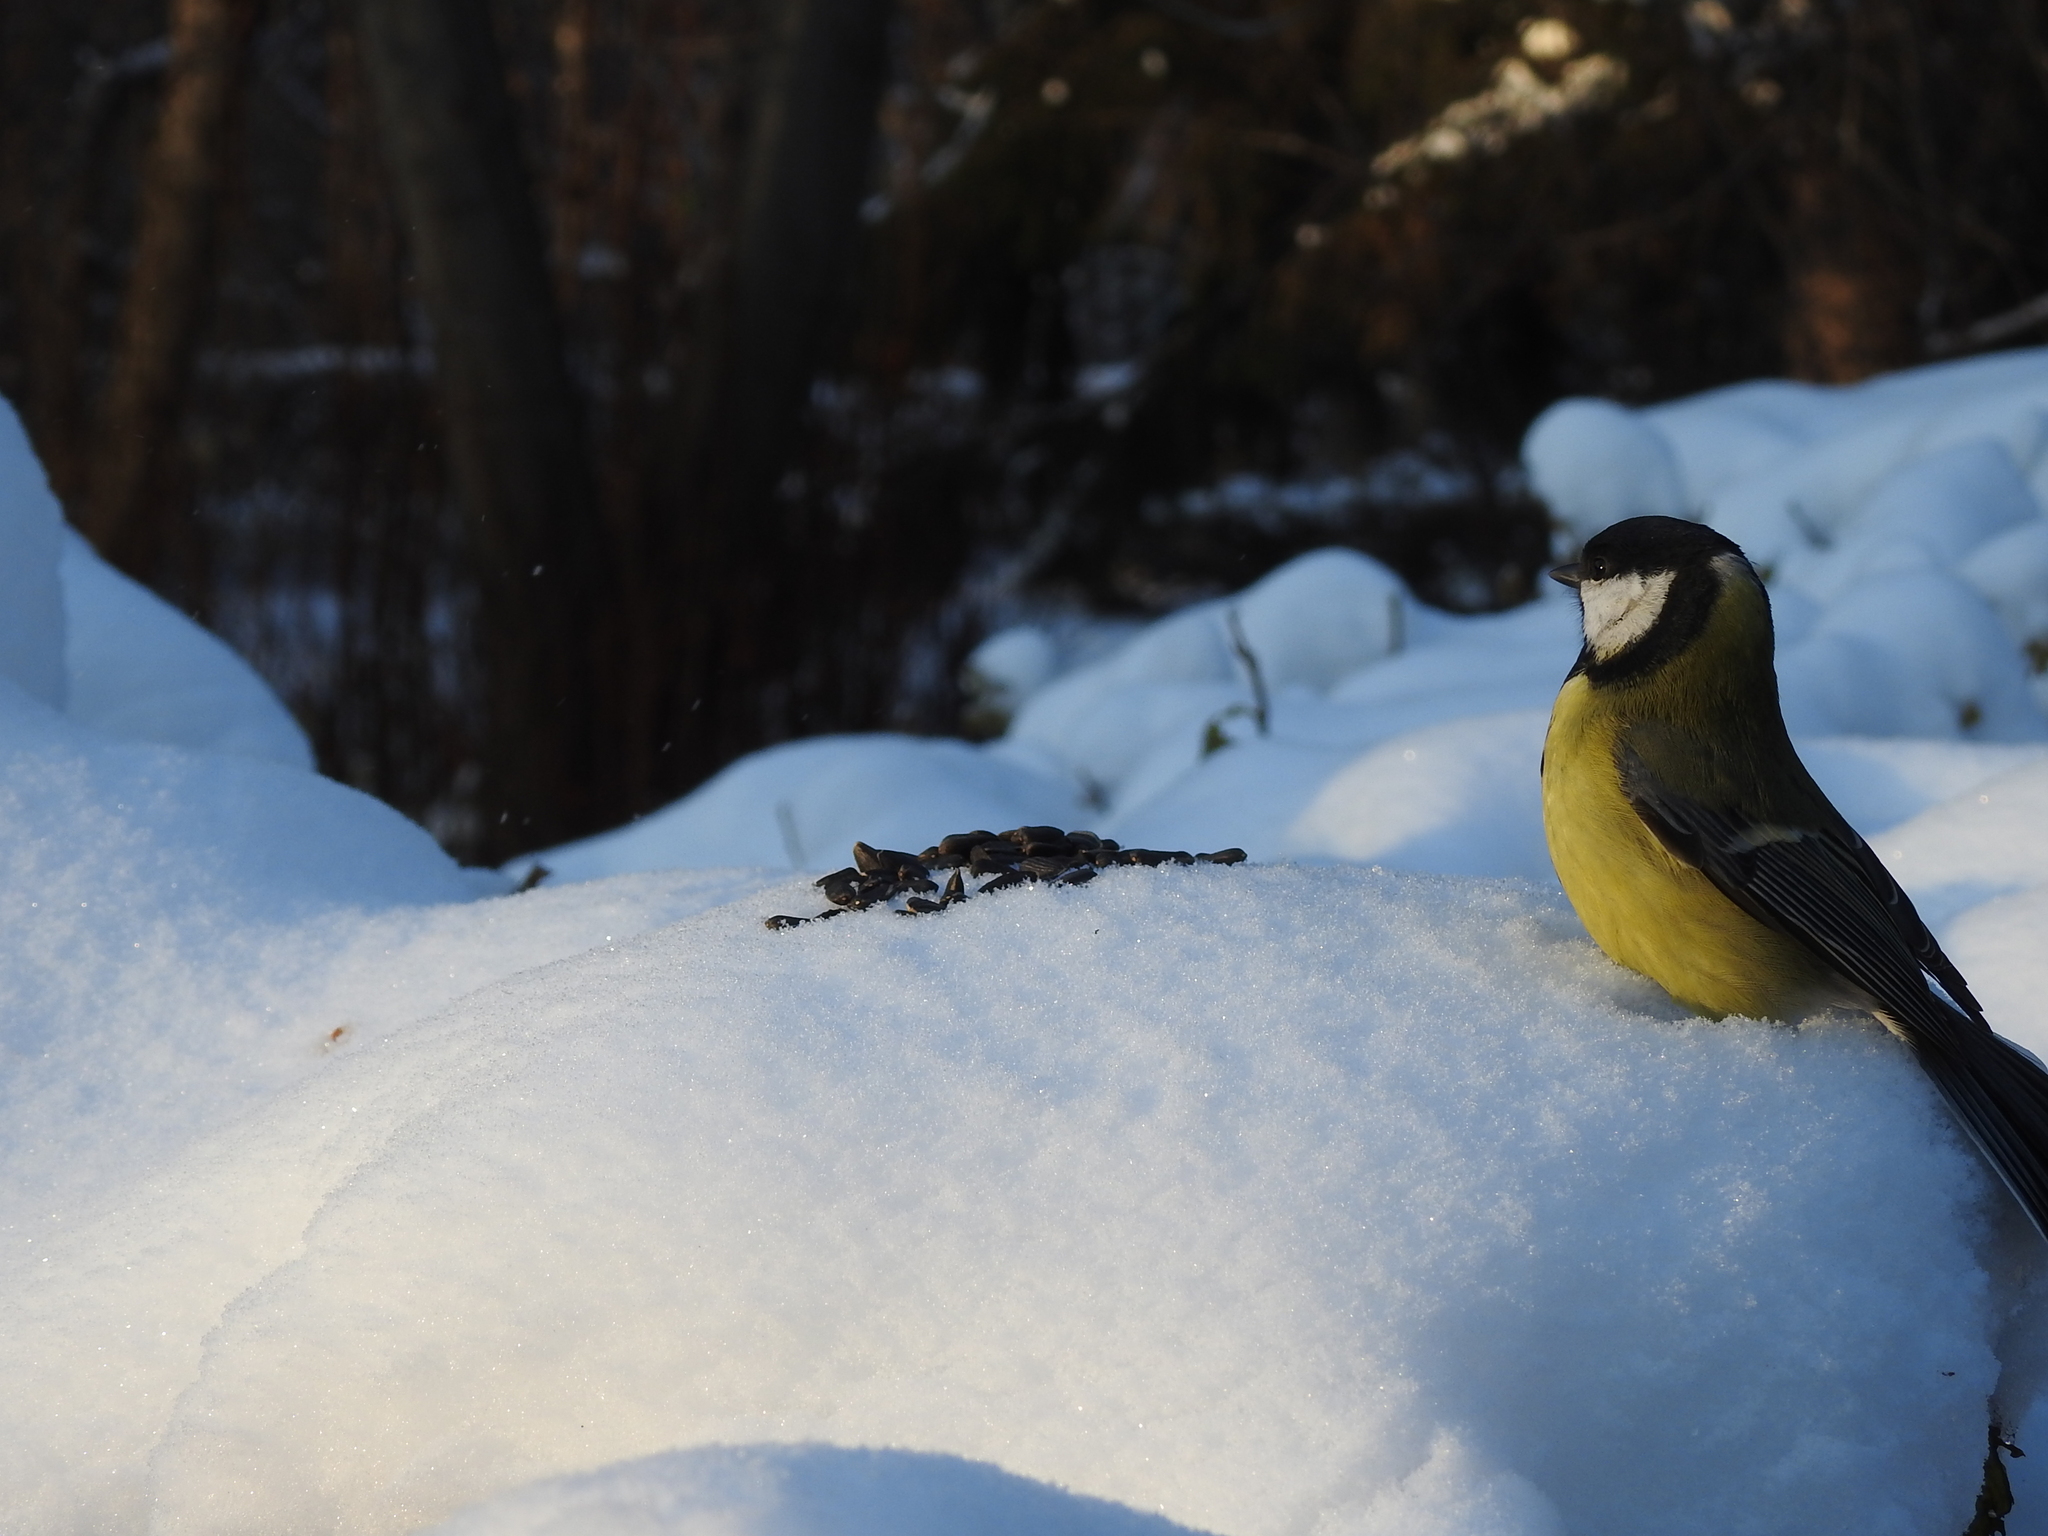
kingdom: Animalia
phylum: Chordata
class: Aves
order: Passeriformes
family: Paridae
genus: Parus
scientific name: Parus major
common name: Great tit
